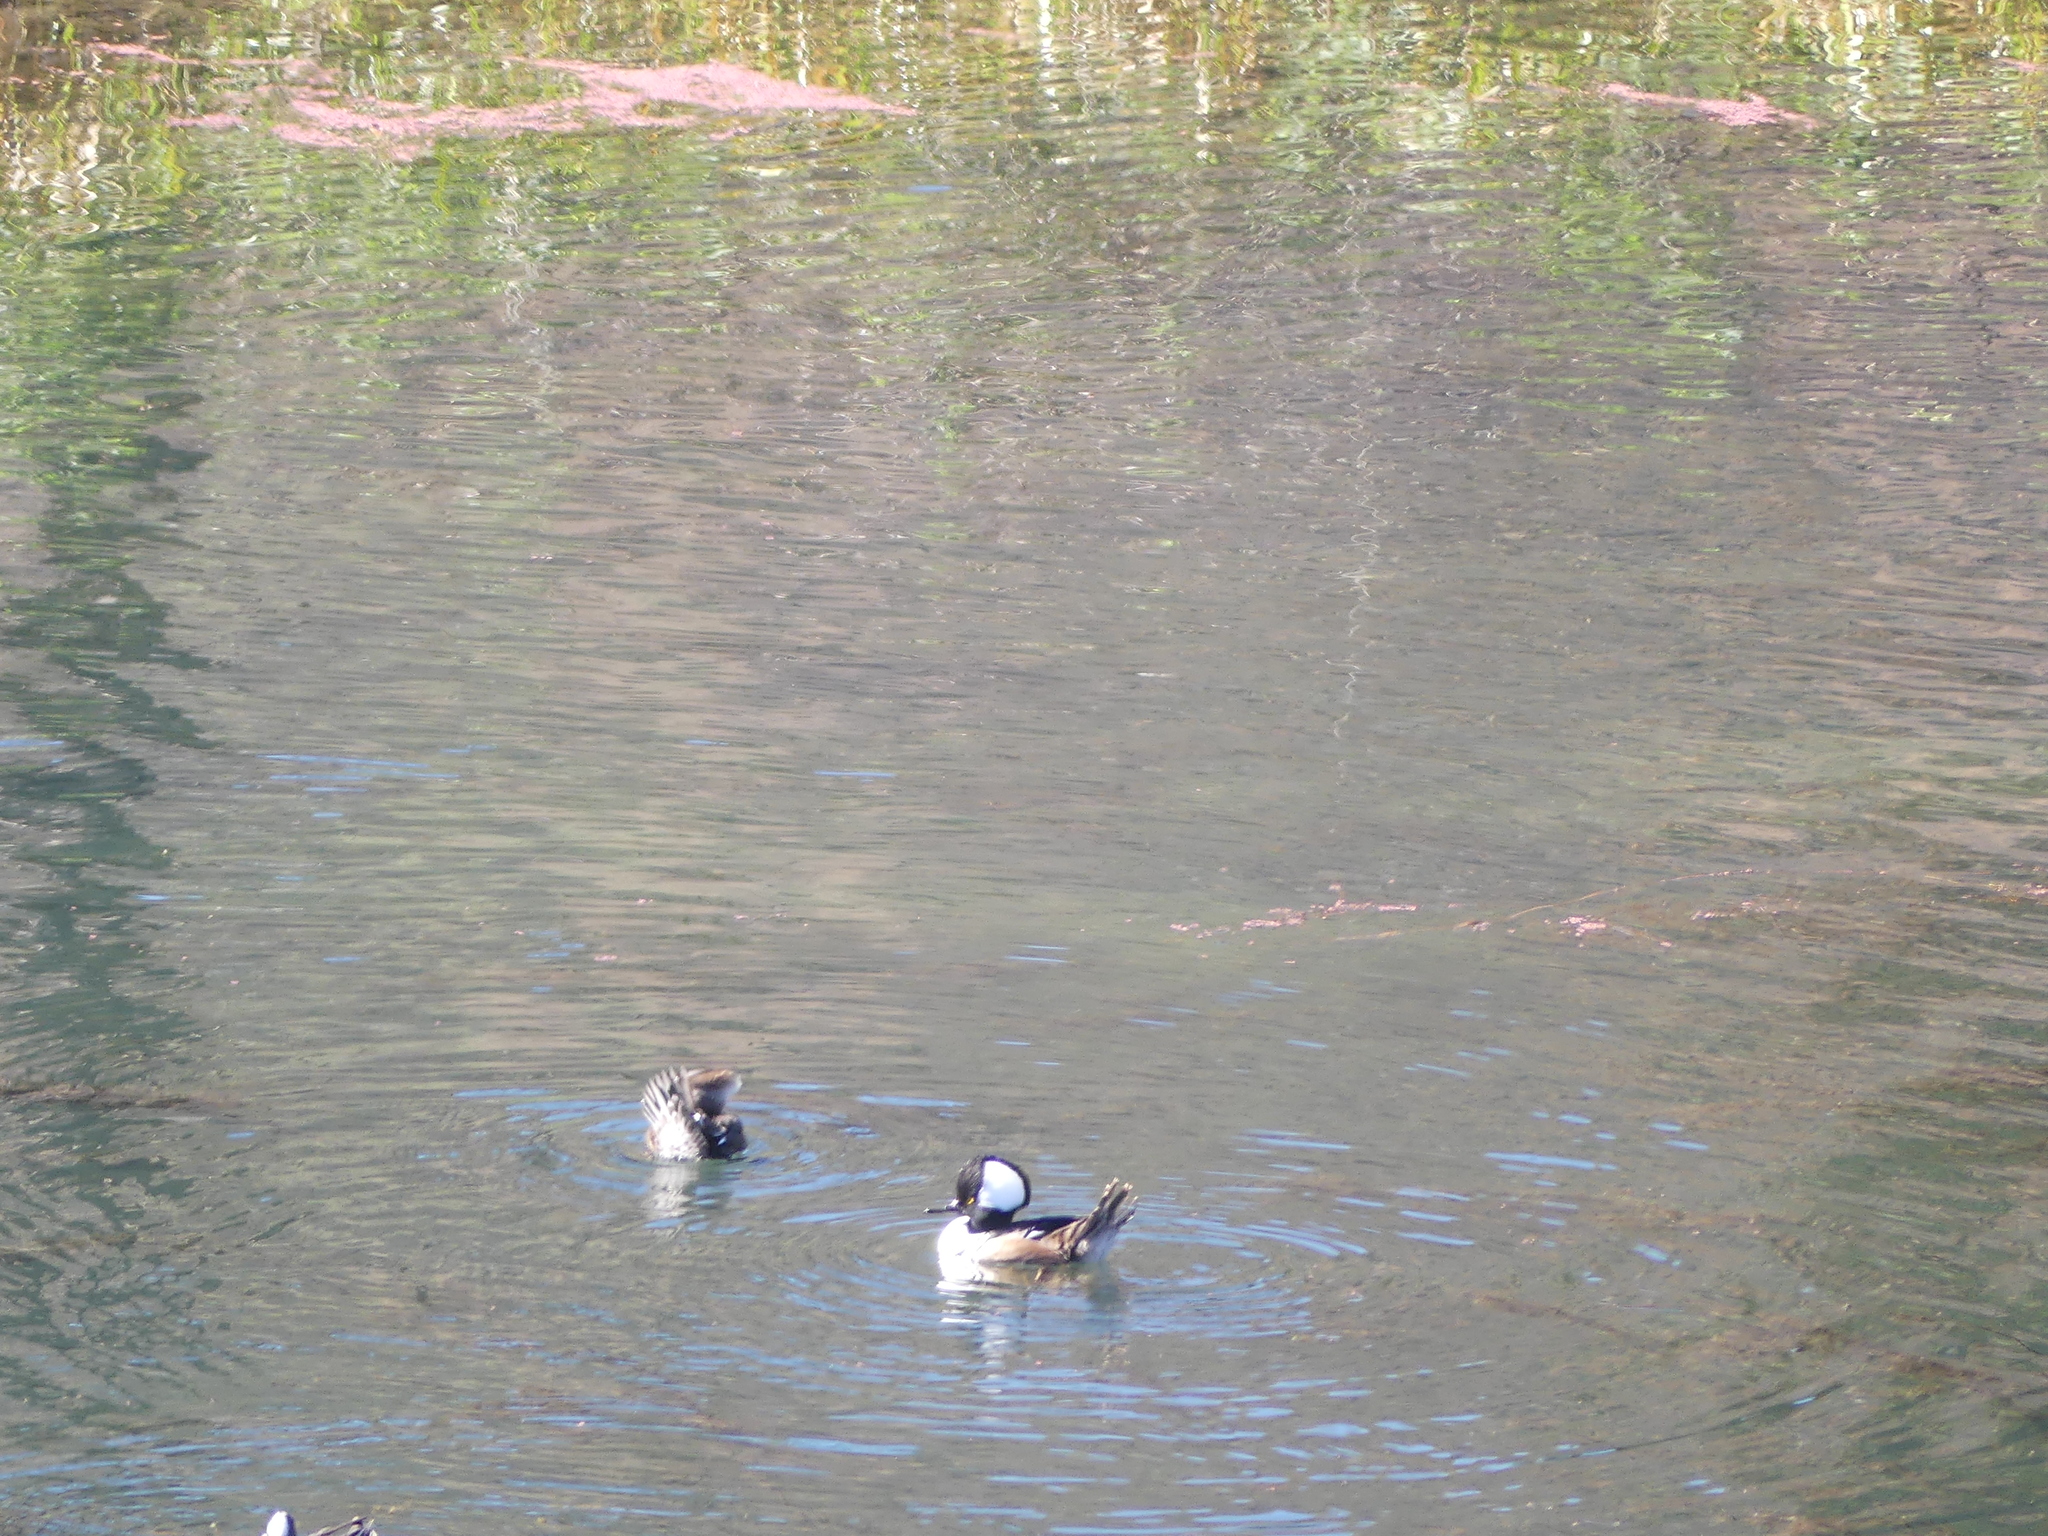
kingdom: Animalia
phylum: Chordata
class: Aves
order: Anseriformes
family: Anatidae
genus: Lophodytes
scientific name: Lophodytes cucullatus
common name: Hooded merganser
